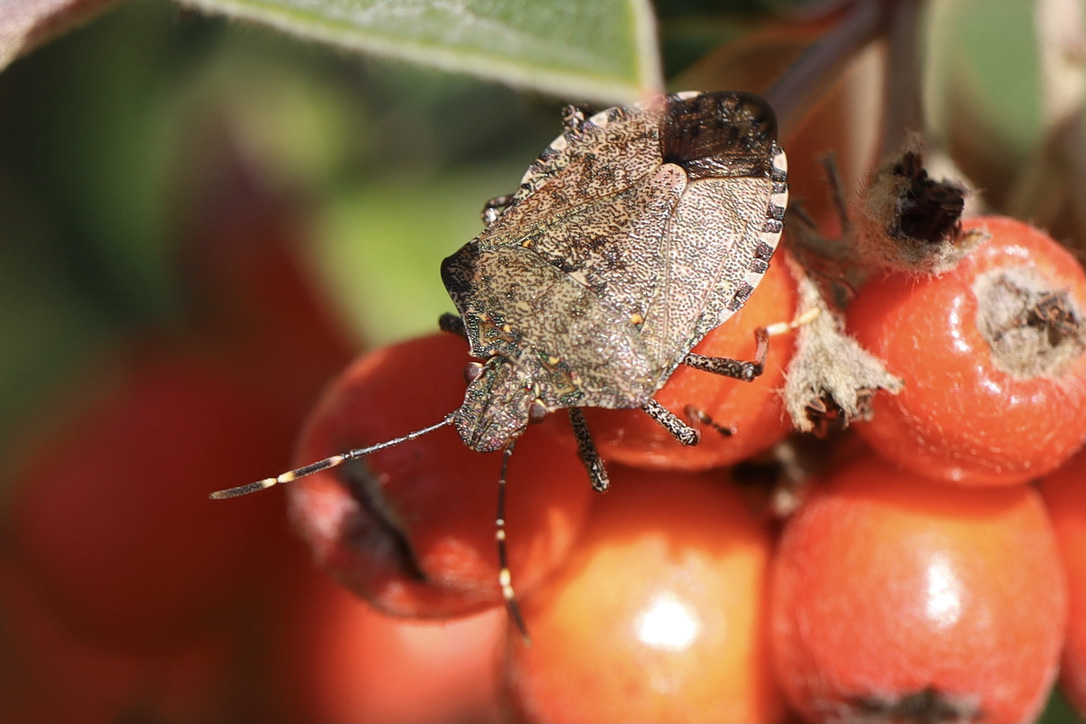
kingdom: Animalia
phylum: Arthropoda
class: Insecta
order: Hemiptera
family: Pentatomidae
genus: Halyomorpha
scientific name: Halyomorpha halys
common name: Brown marmorated stink bug
